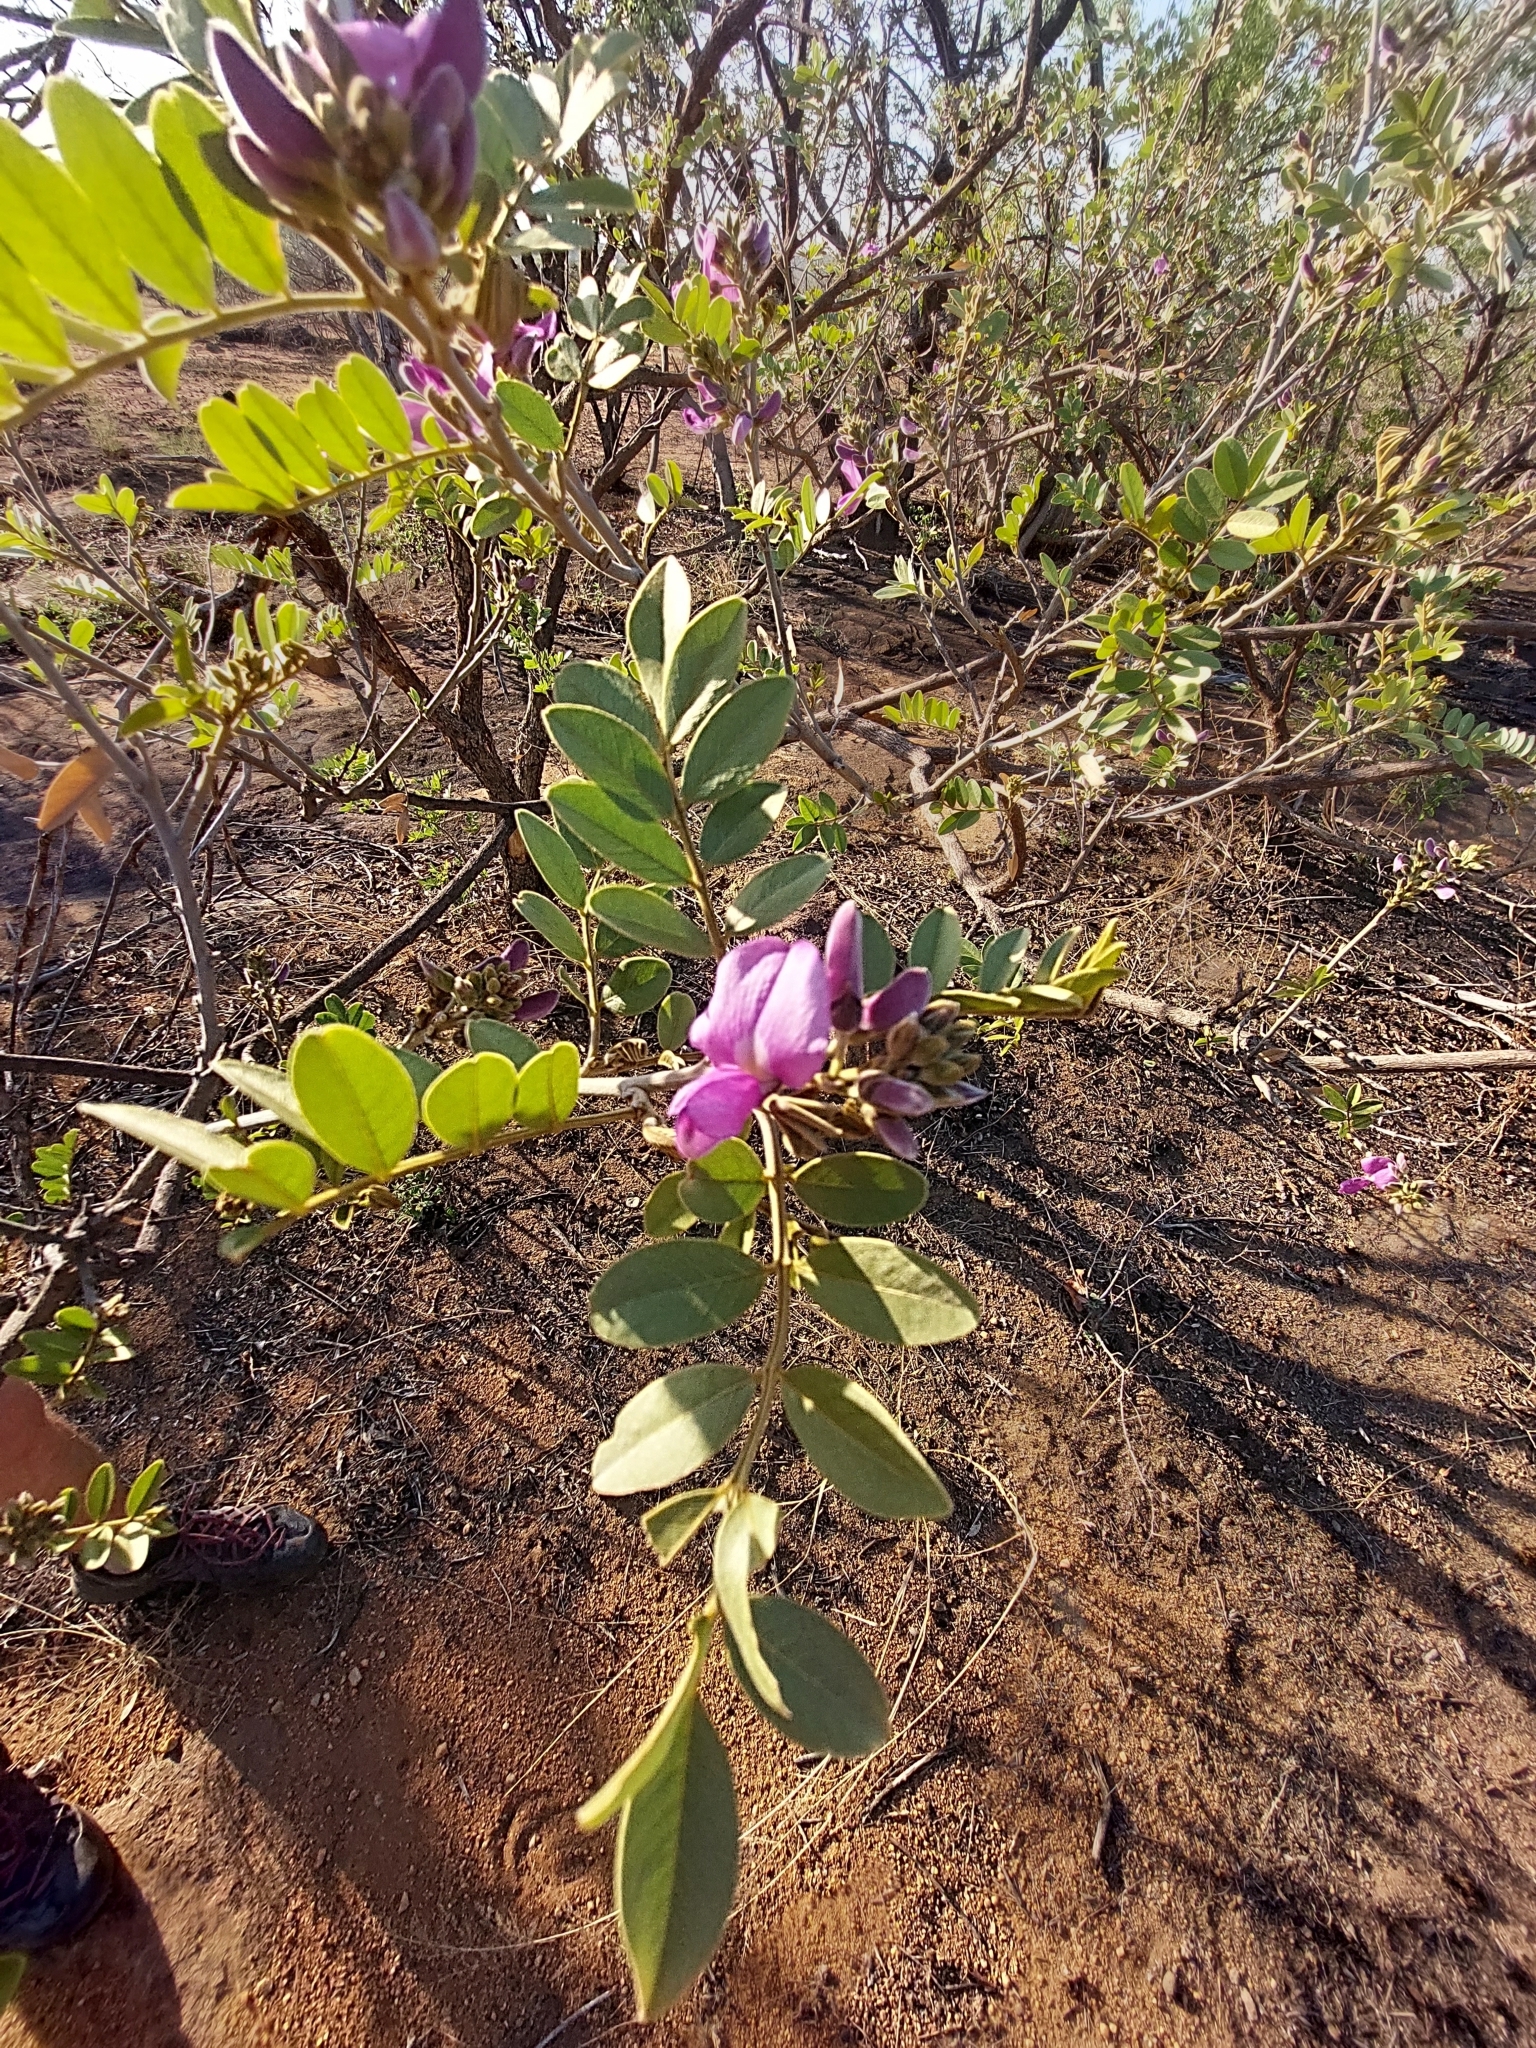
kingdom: Plantae
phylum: Tracheophyta
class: Magnoliopsida
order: Fabales
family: Fabaceae
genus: Mundulea
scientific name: Mundulea sericea
